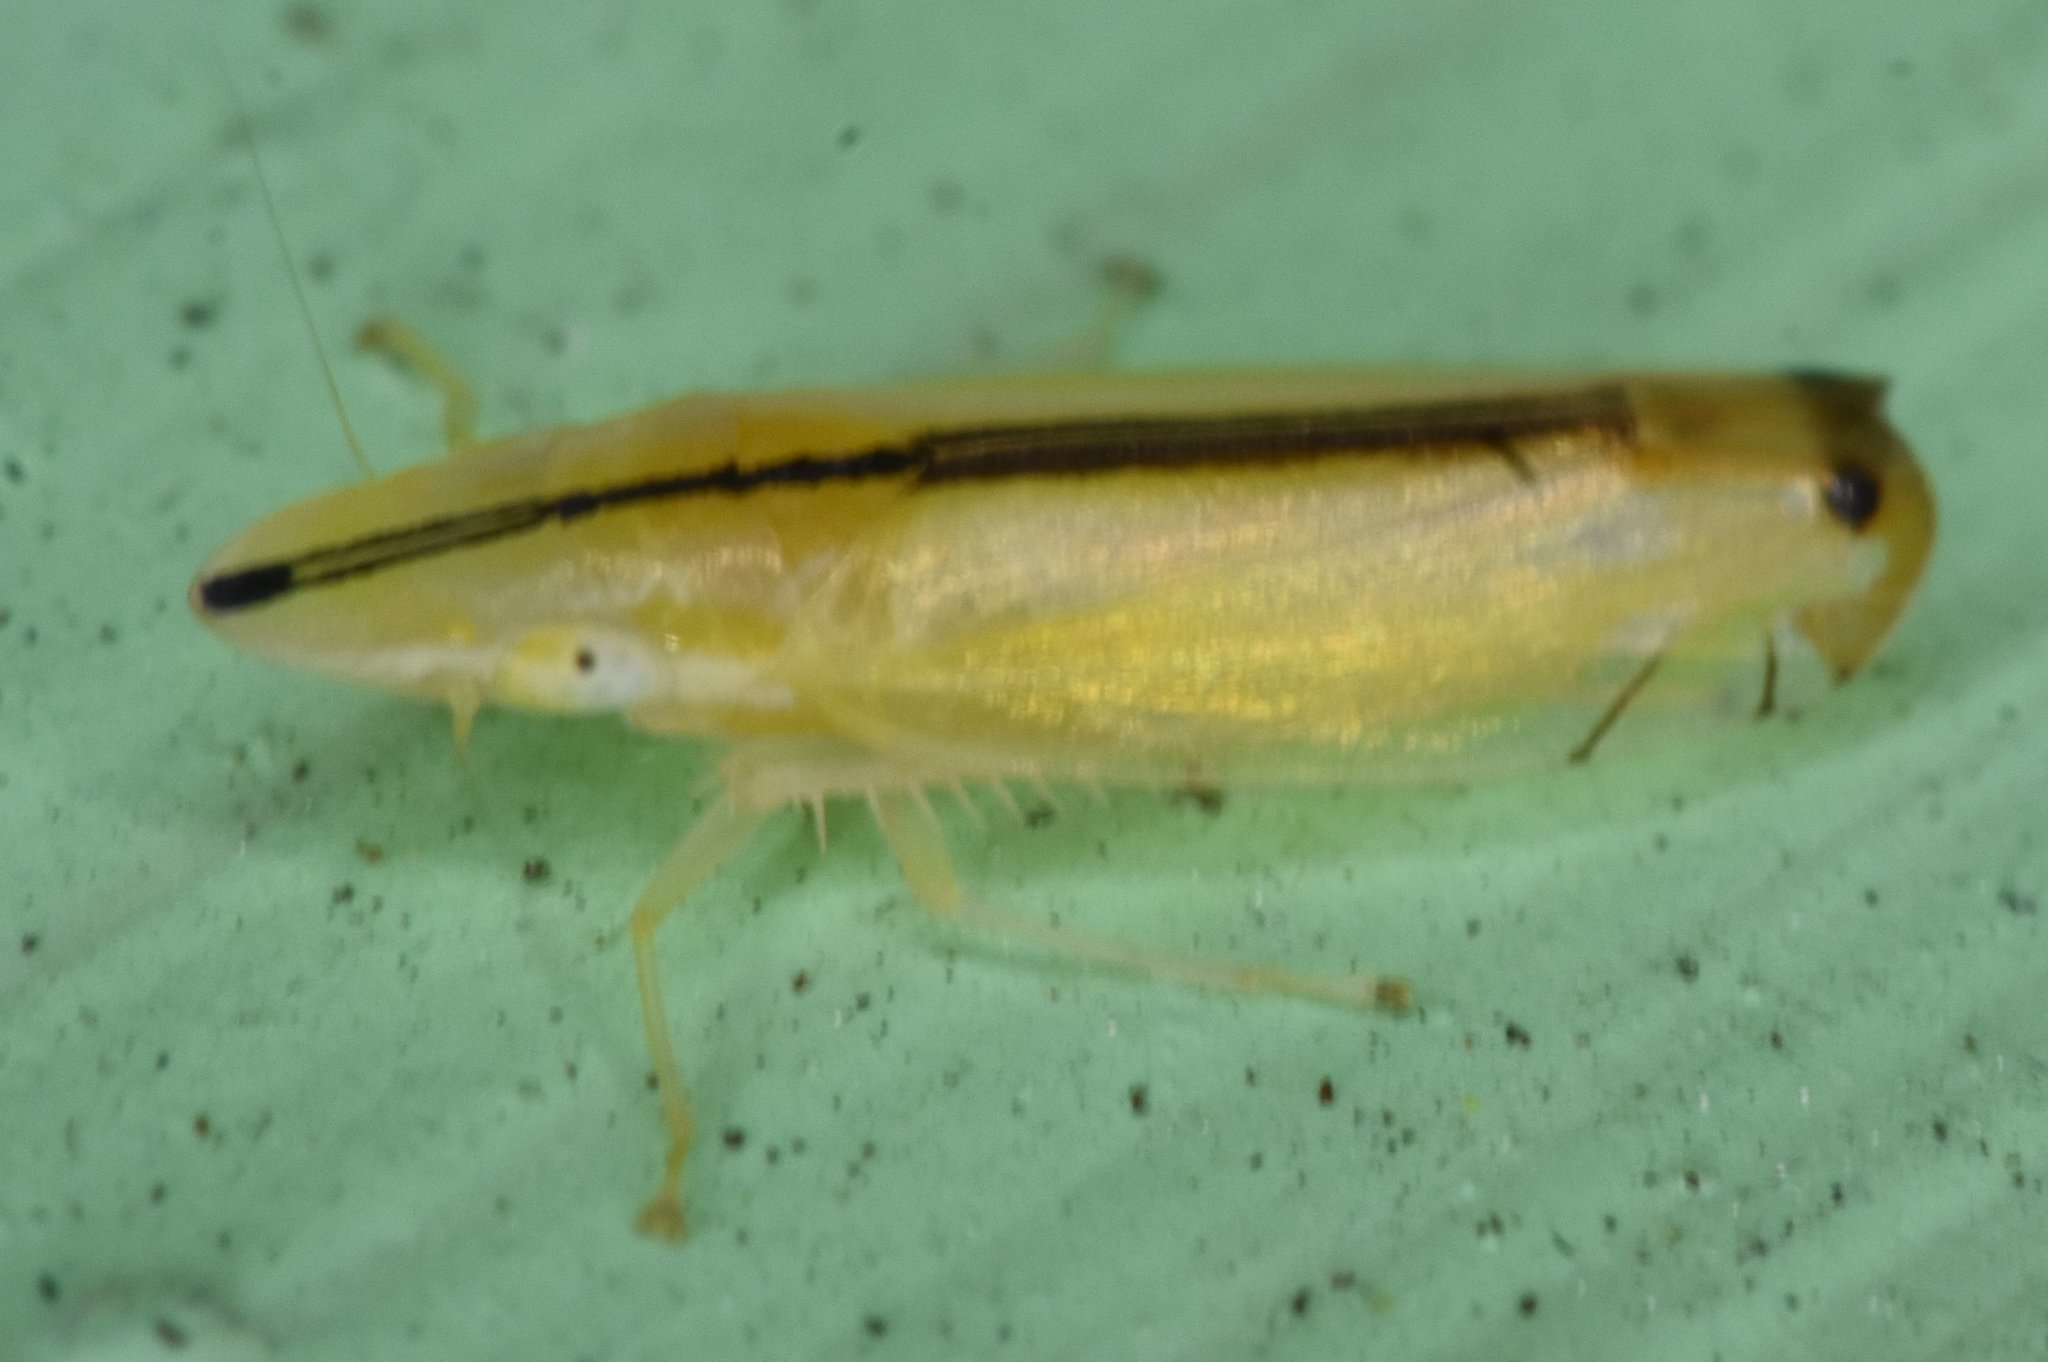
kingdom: Animalia
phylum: Arthropoda
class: Insecta
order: Hemiptera
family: Cicadellidae
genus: Sophonia
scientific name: Sophonia orientalis
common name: Two-spotted leafhopper
